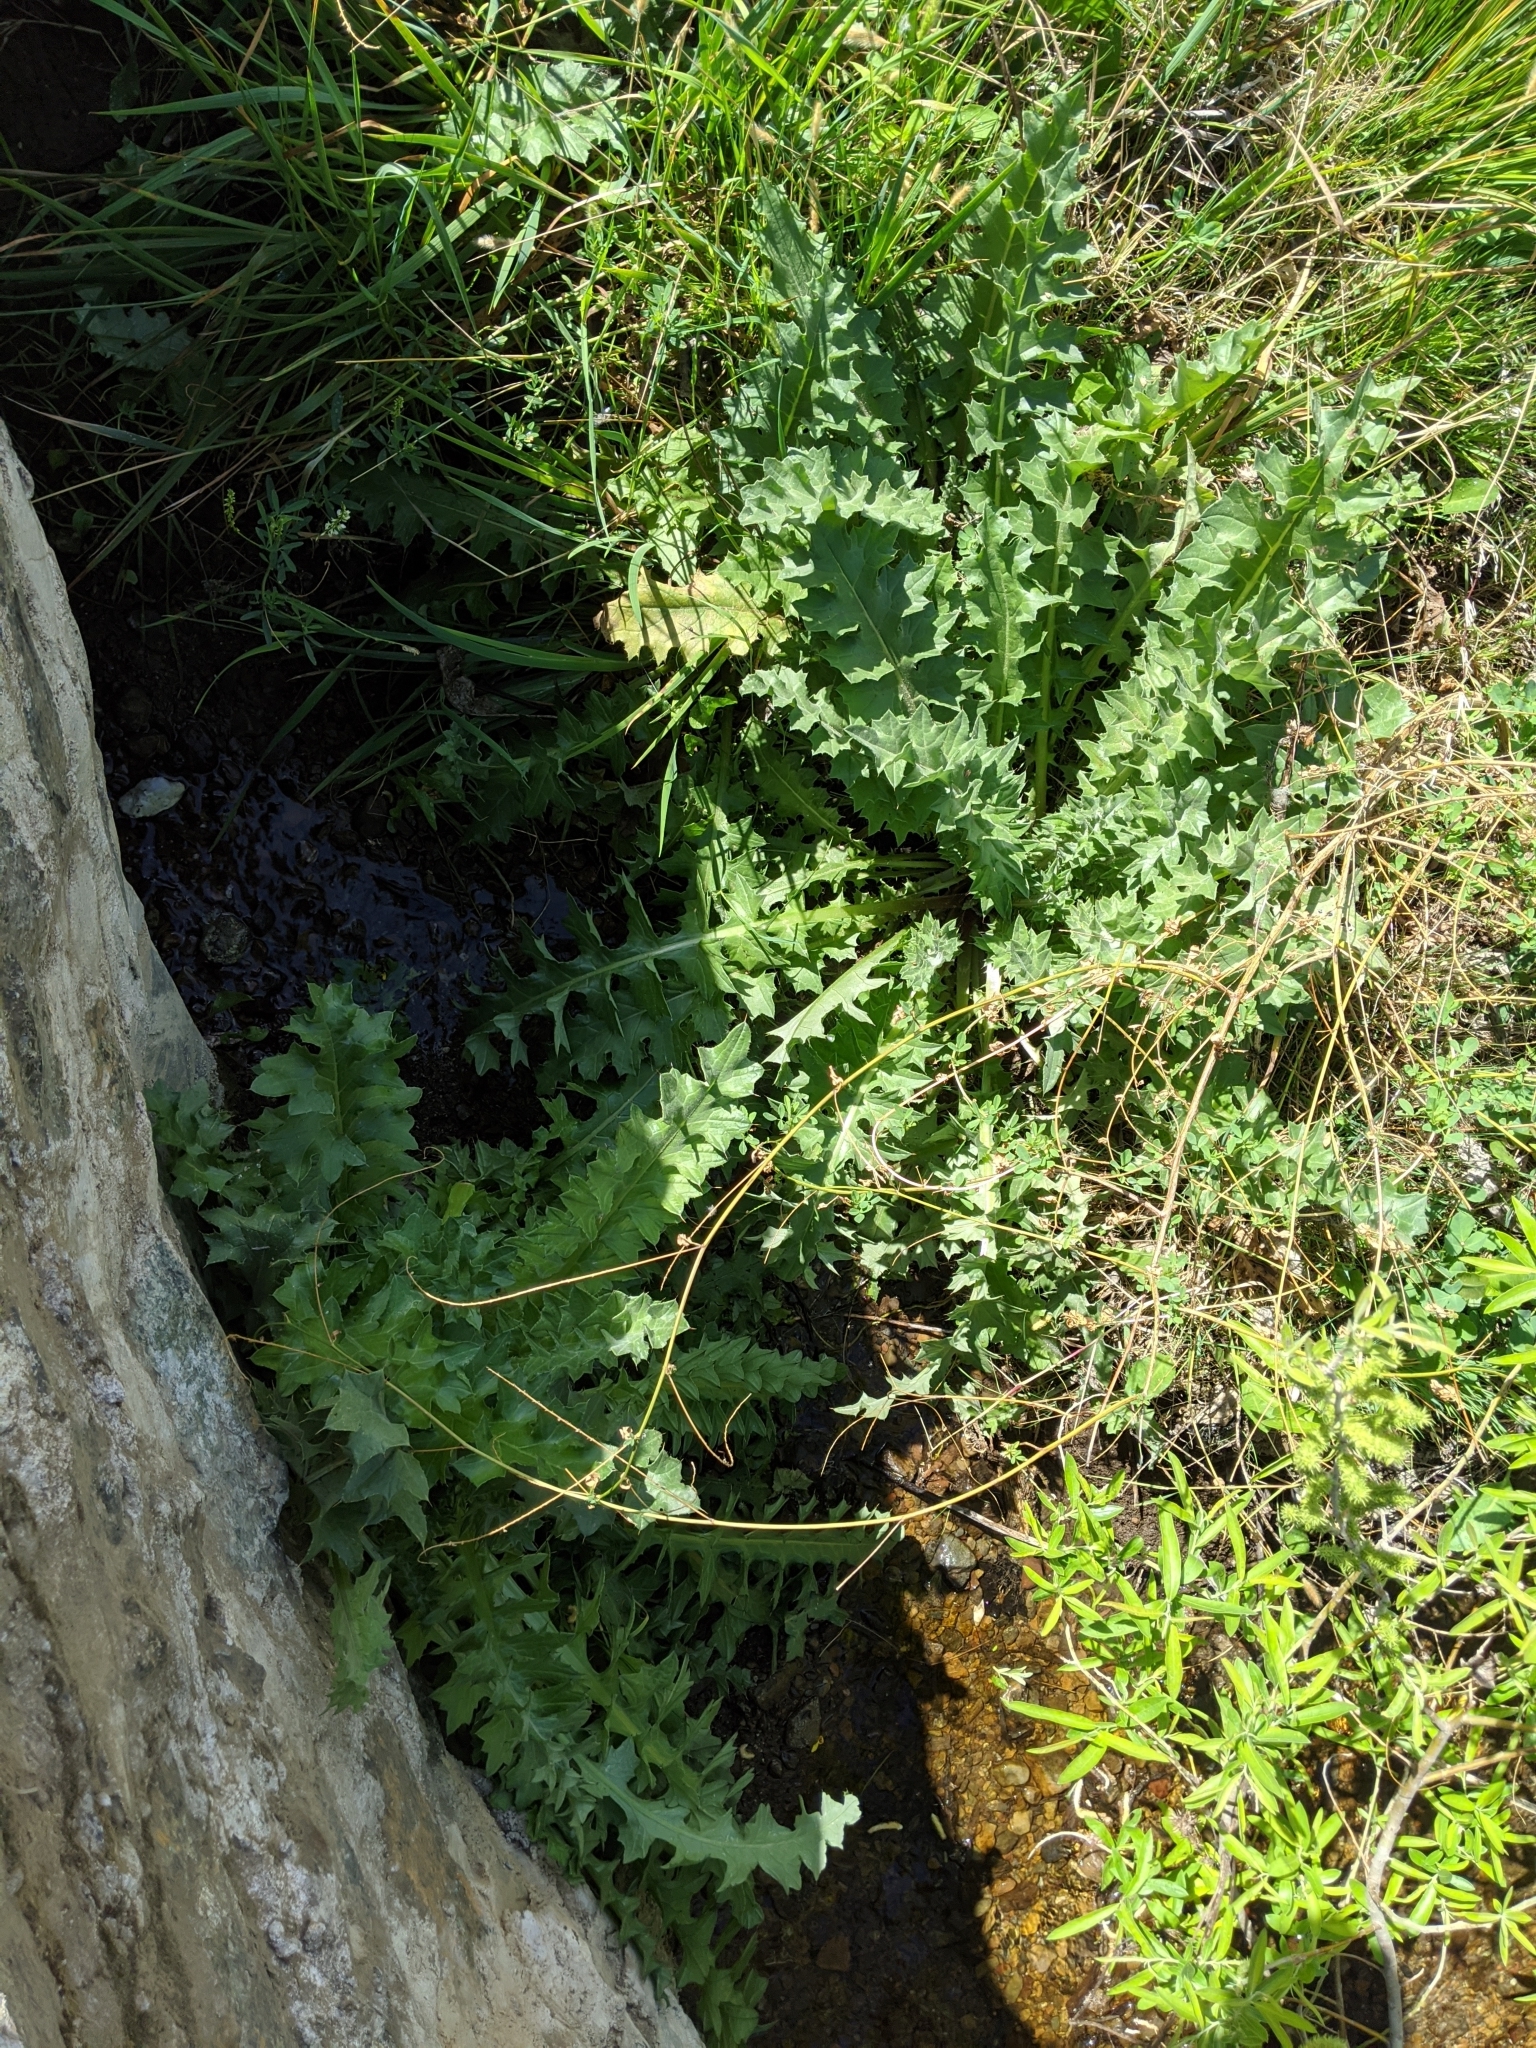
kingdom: Plantae
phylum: Tracheophyta
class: Magnoliopsida
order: Asterales
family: Asteraceae
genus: Cirsium
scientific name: Cirsium fontinale
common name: Fountain thistle
